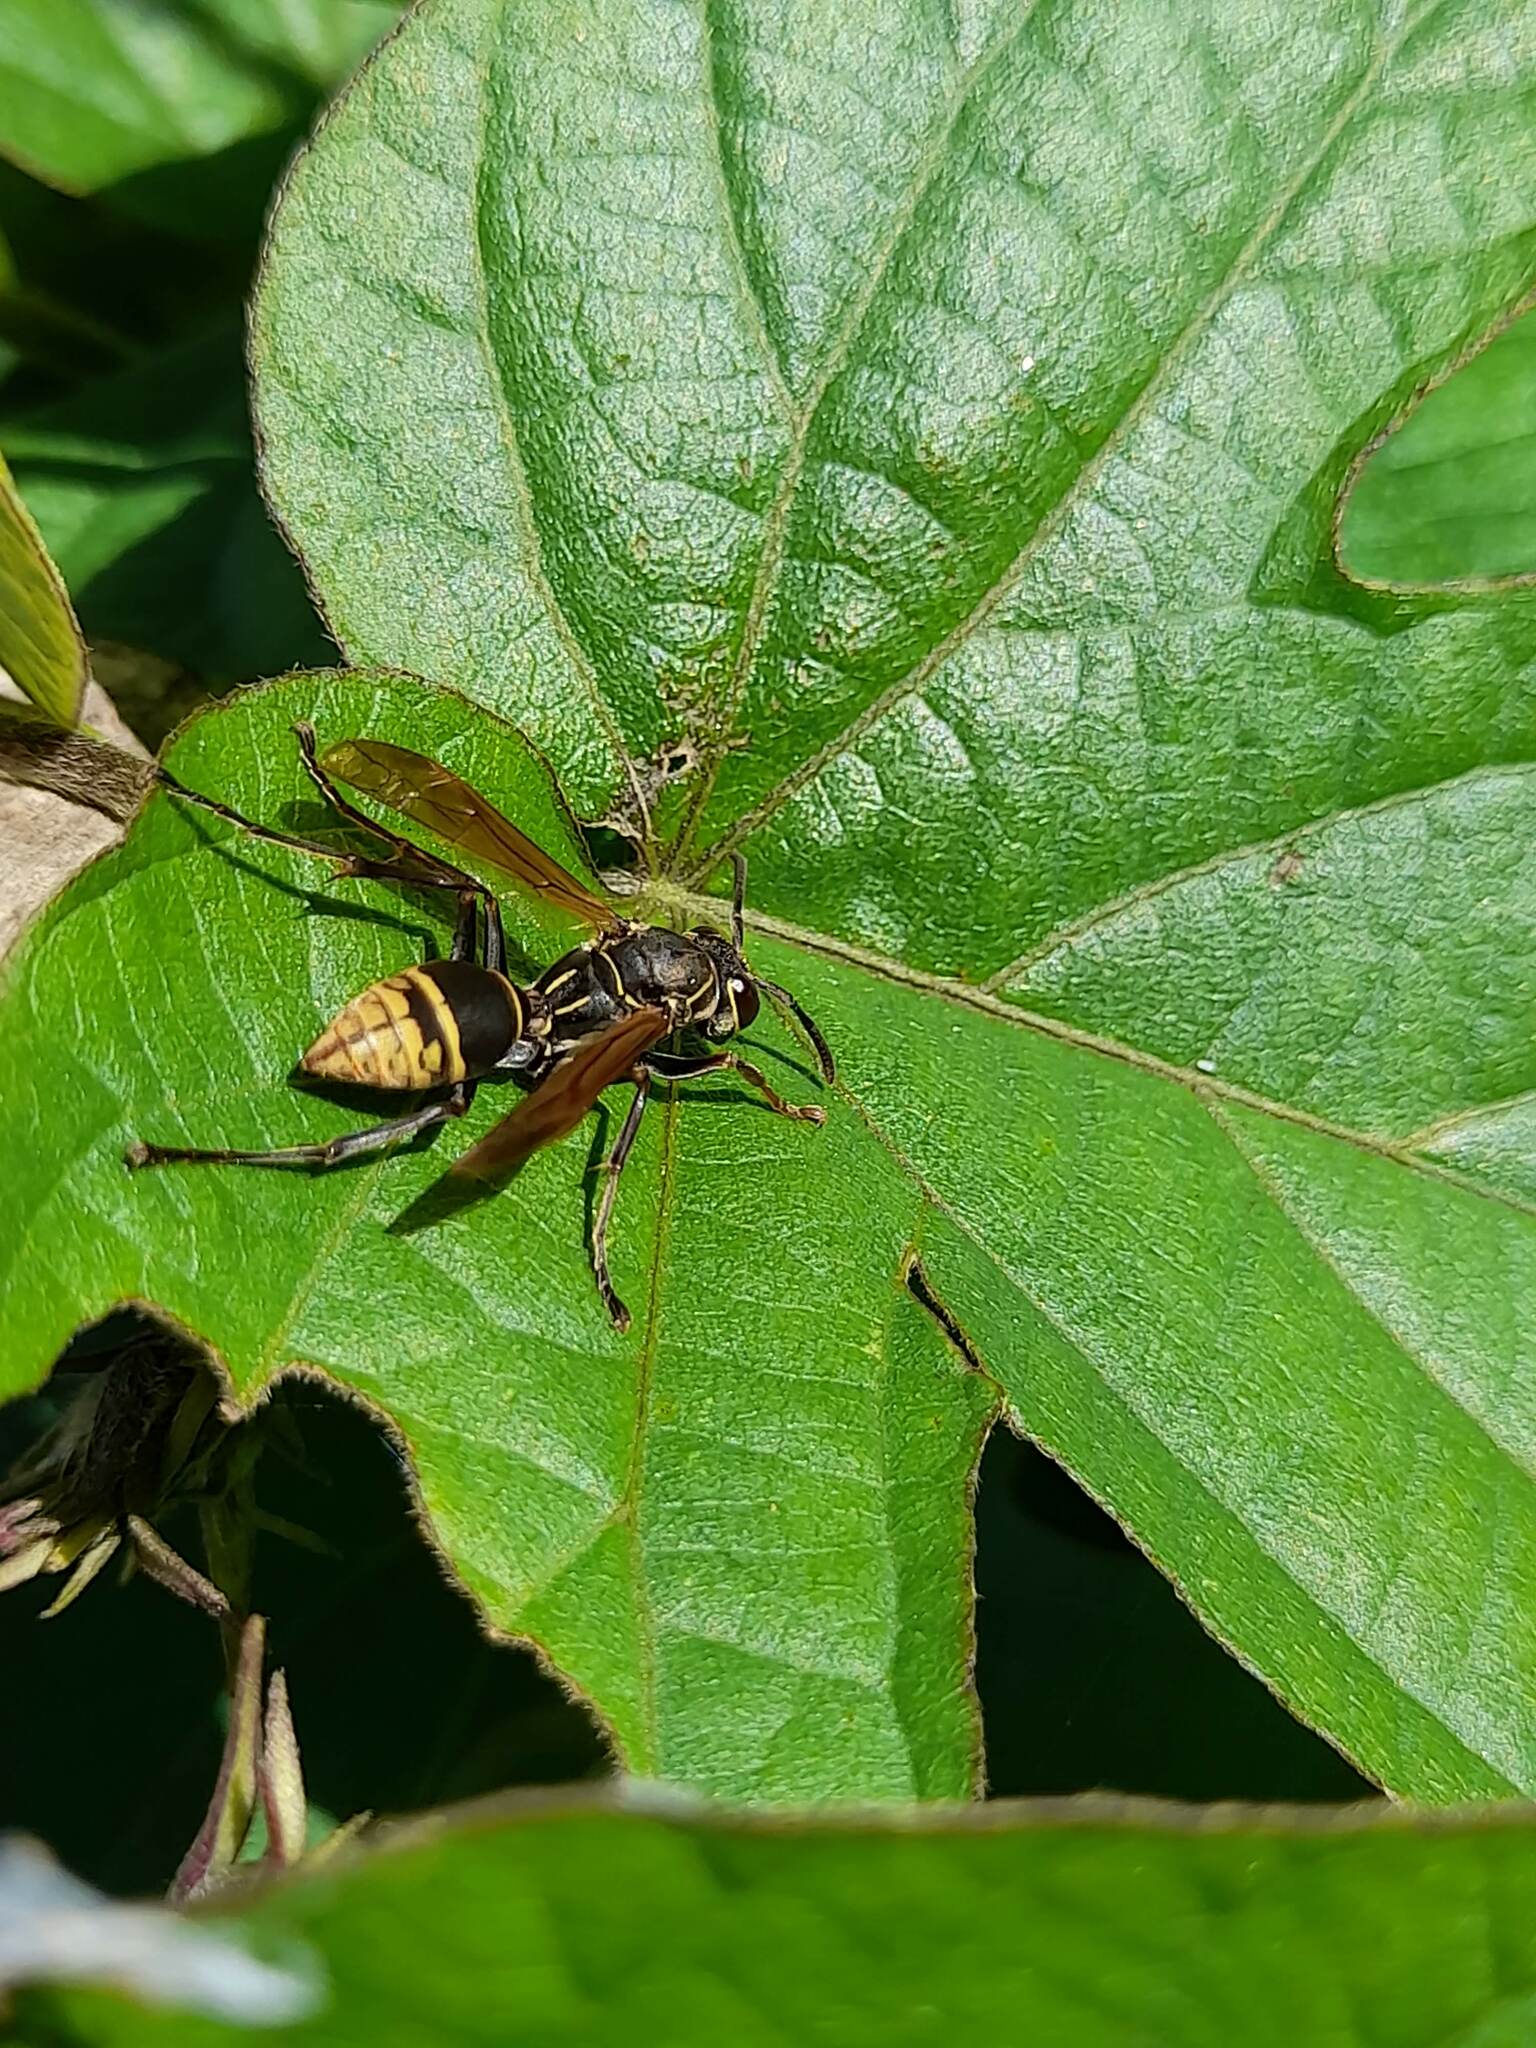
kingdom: Animalia
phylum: Arthropoda
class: Insecta
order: Hymenoptera
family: Eumenidae
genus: Polistes
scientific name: Polistes cinerascens
